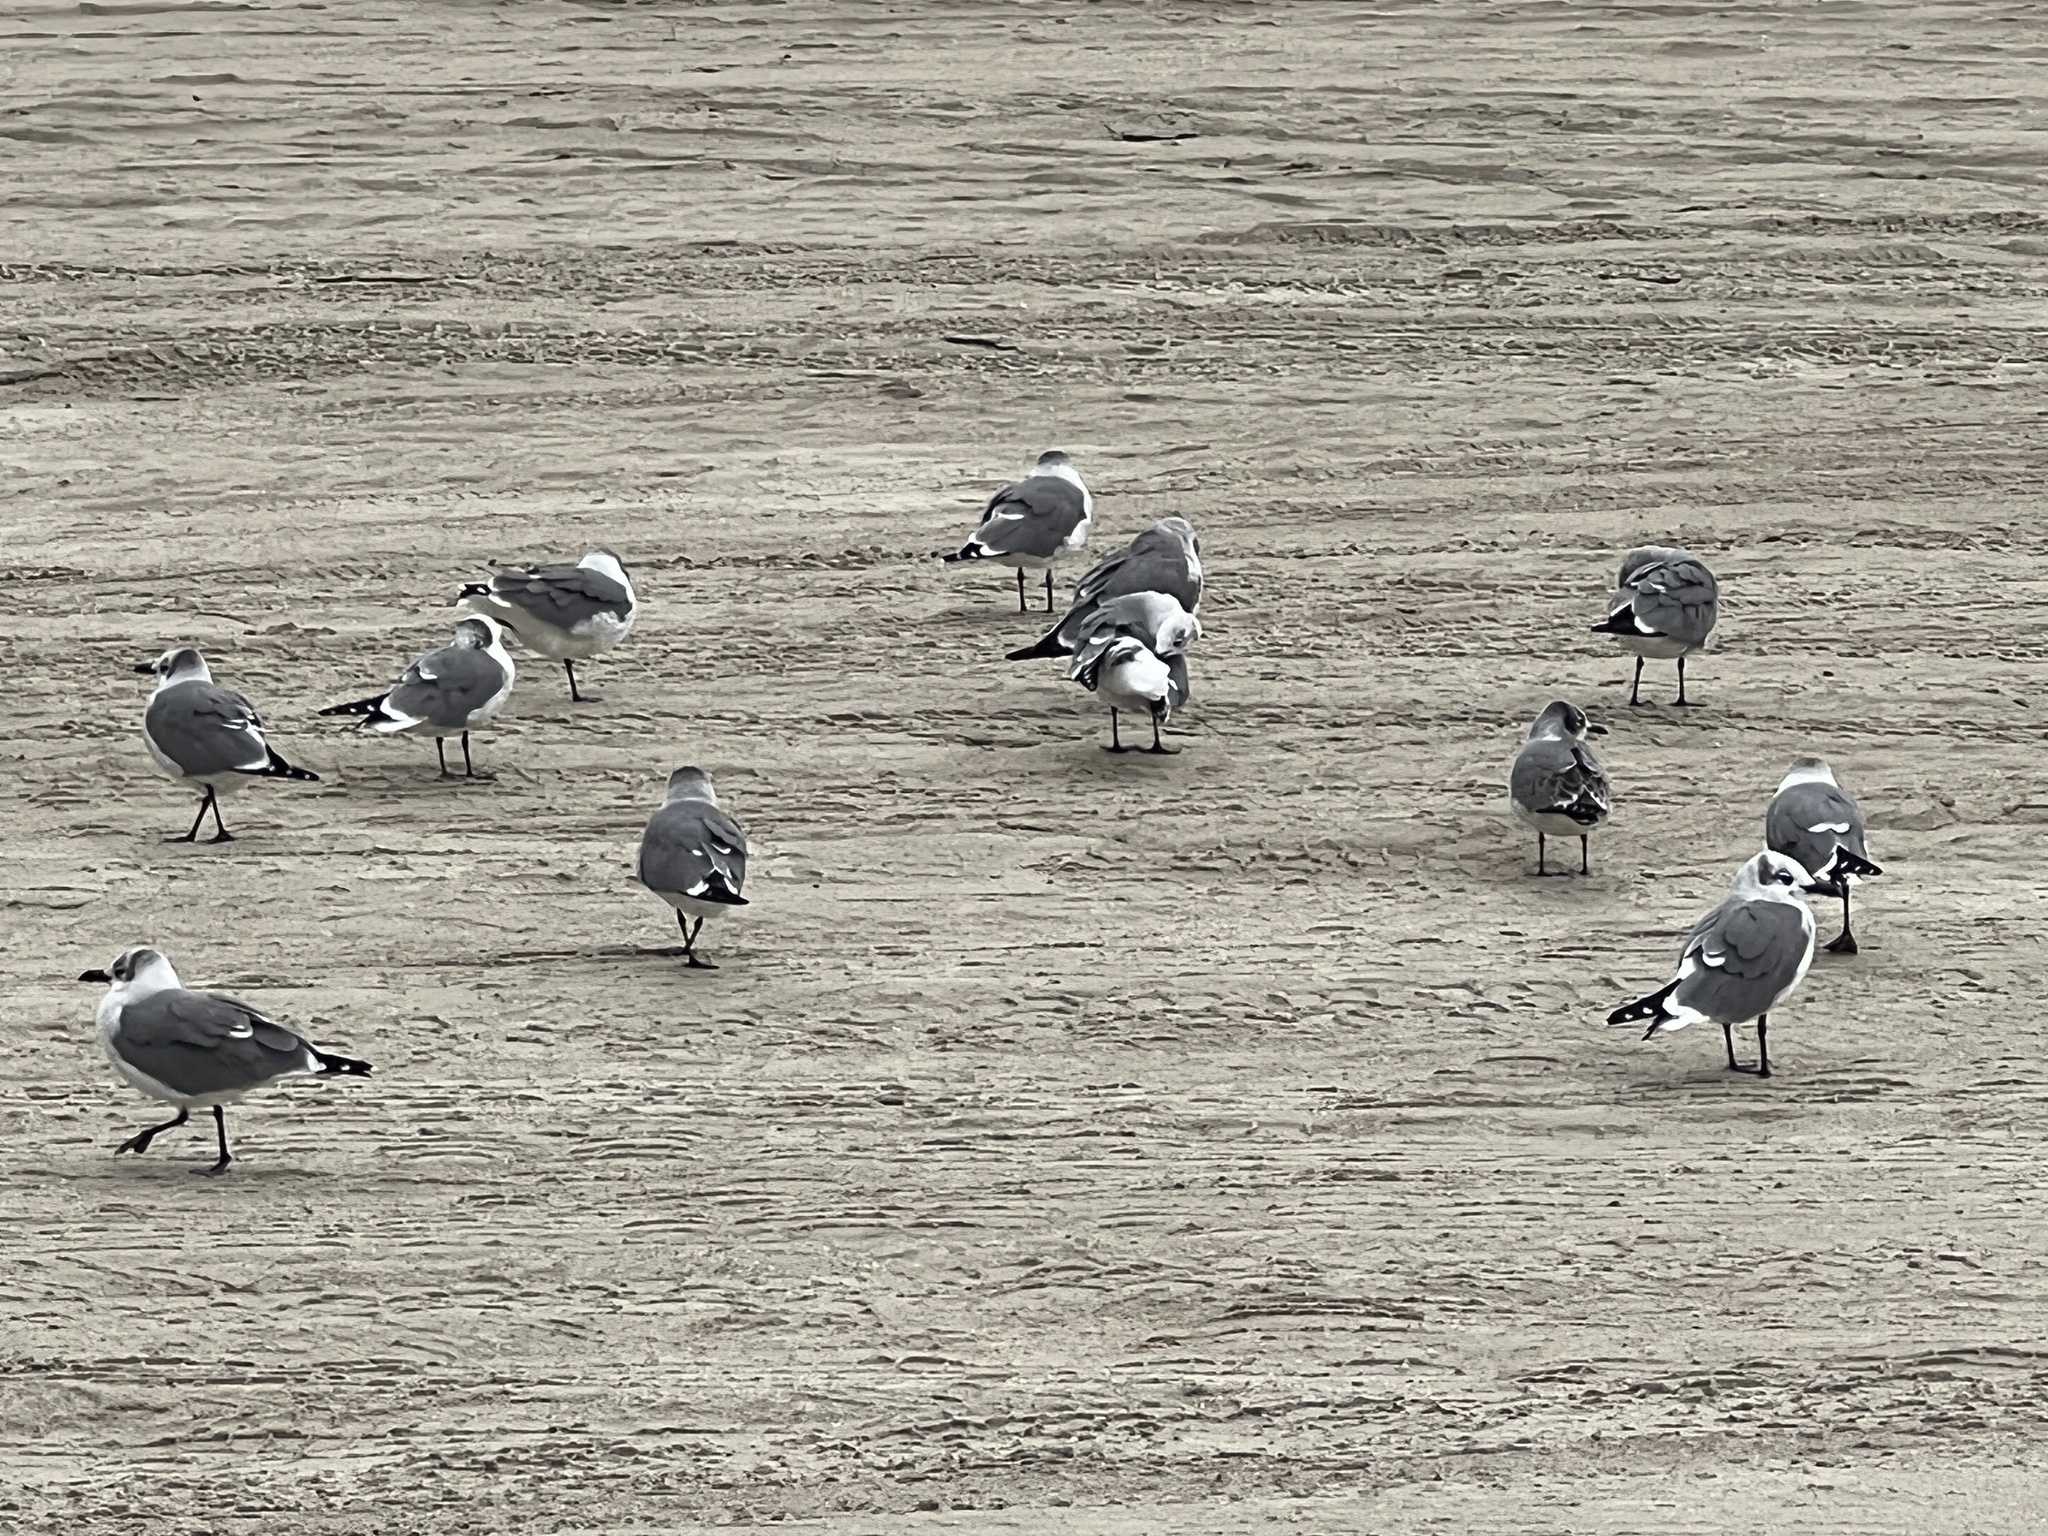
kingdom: Animalia
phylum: Chordata
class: Aves
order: Charadriiformes
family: Laridae
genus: Leucophaeus
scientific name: Leucophaeus atricilla
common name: Laughing gull
